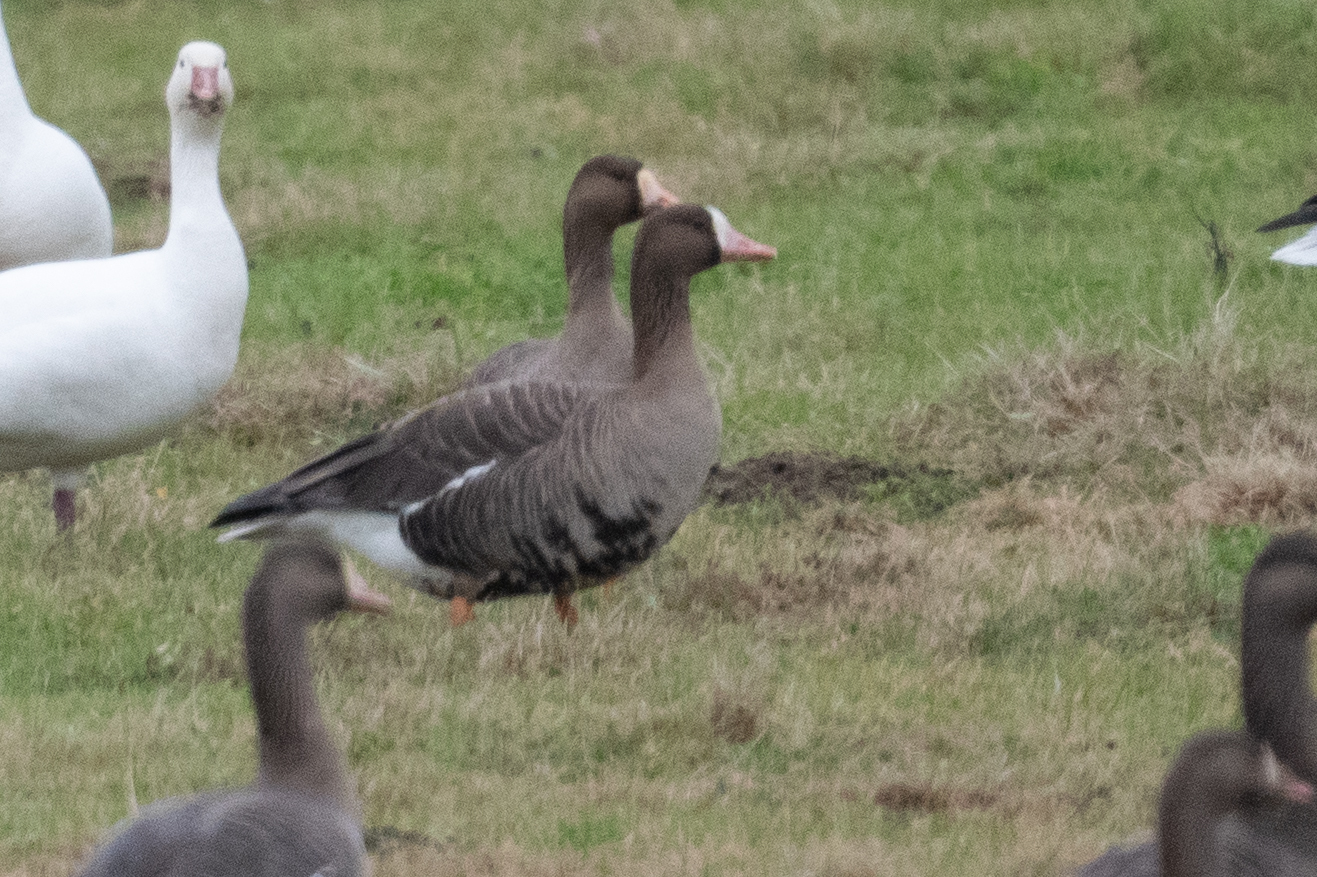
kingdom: Animalia
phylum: Chordata
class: Aves
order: Anseriformes
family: Anatidae
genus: Anser
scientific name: Anser albifrons
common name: Greater white-fronted goose
